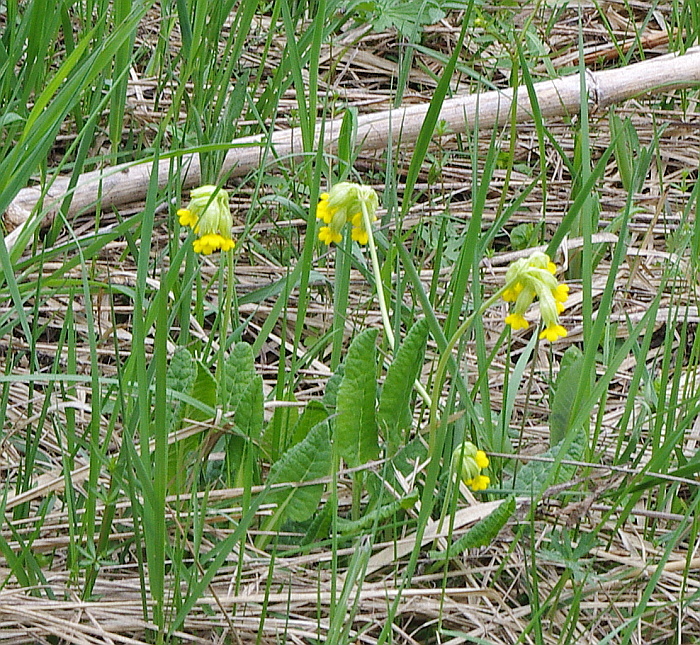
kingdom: Plantae
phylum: Tracheophyta
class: Magnoliopsida
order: Ericales
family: Primulaceae
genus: Primula
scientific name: Primula veris
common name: Cowslip
